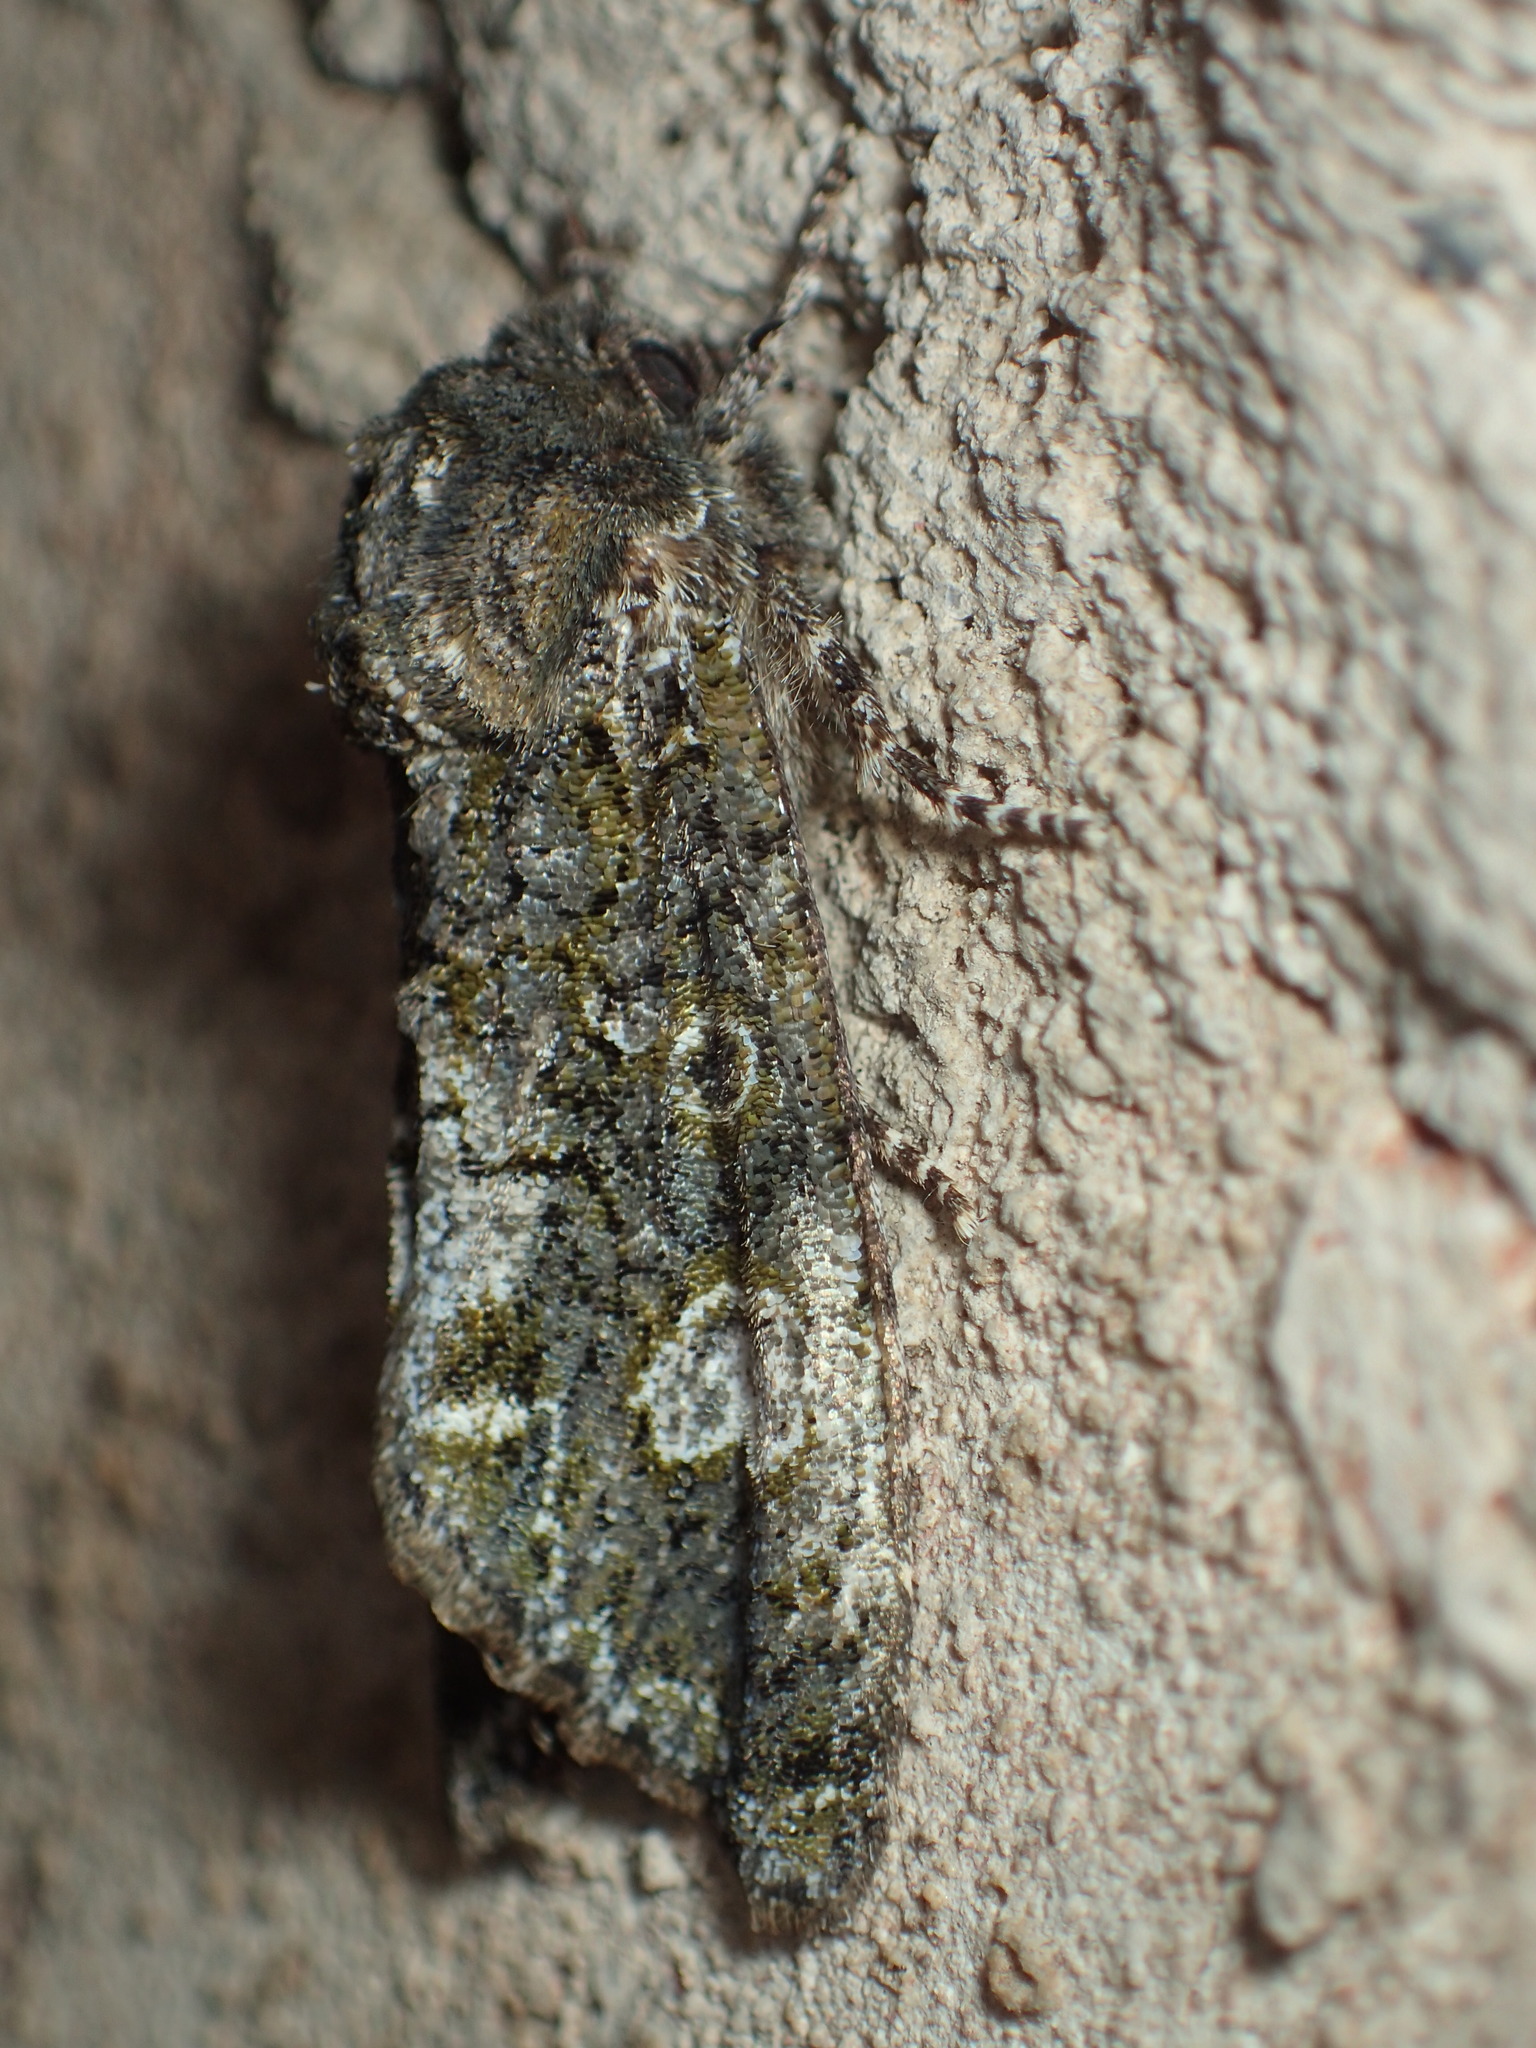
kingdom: Animalia
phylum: Arthropoda
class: Insecta
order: Lepidoptera
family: Noctuidae
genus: Phosphila
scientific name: Phosphila miselioides
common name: Spotted phosphila moth
